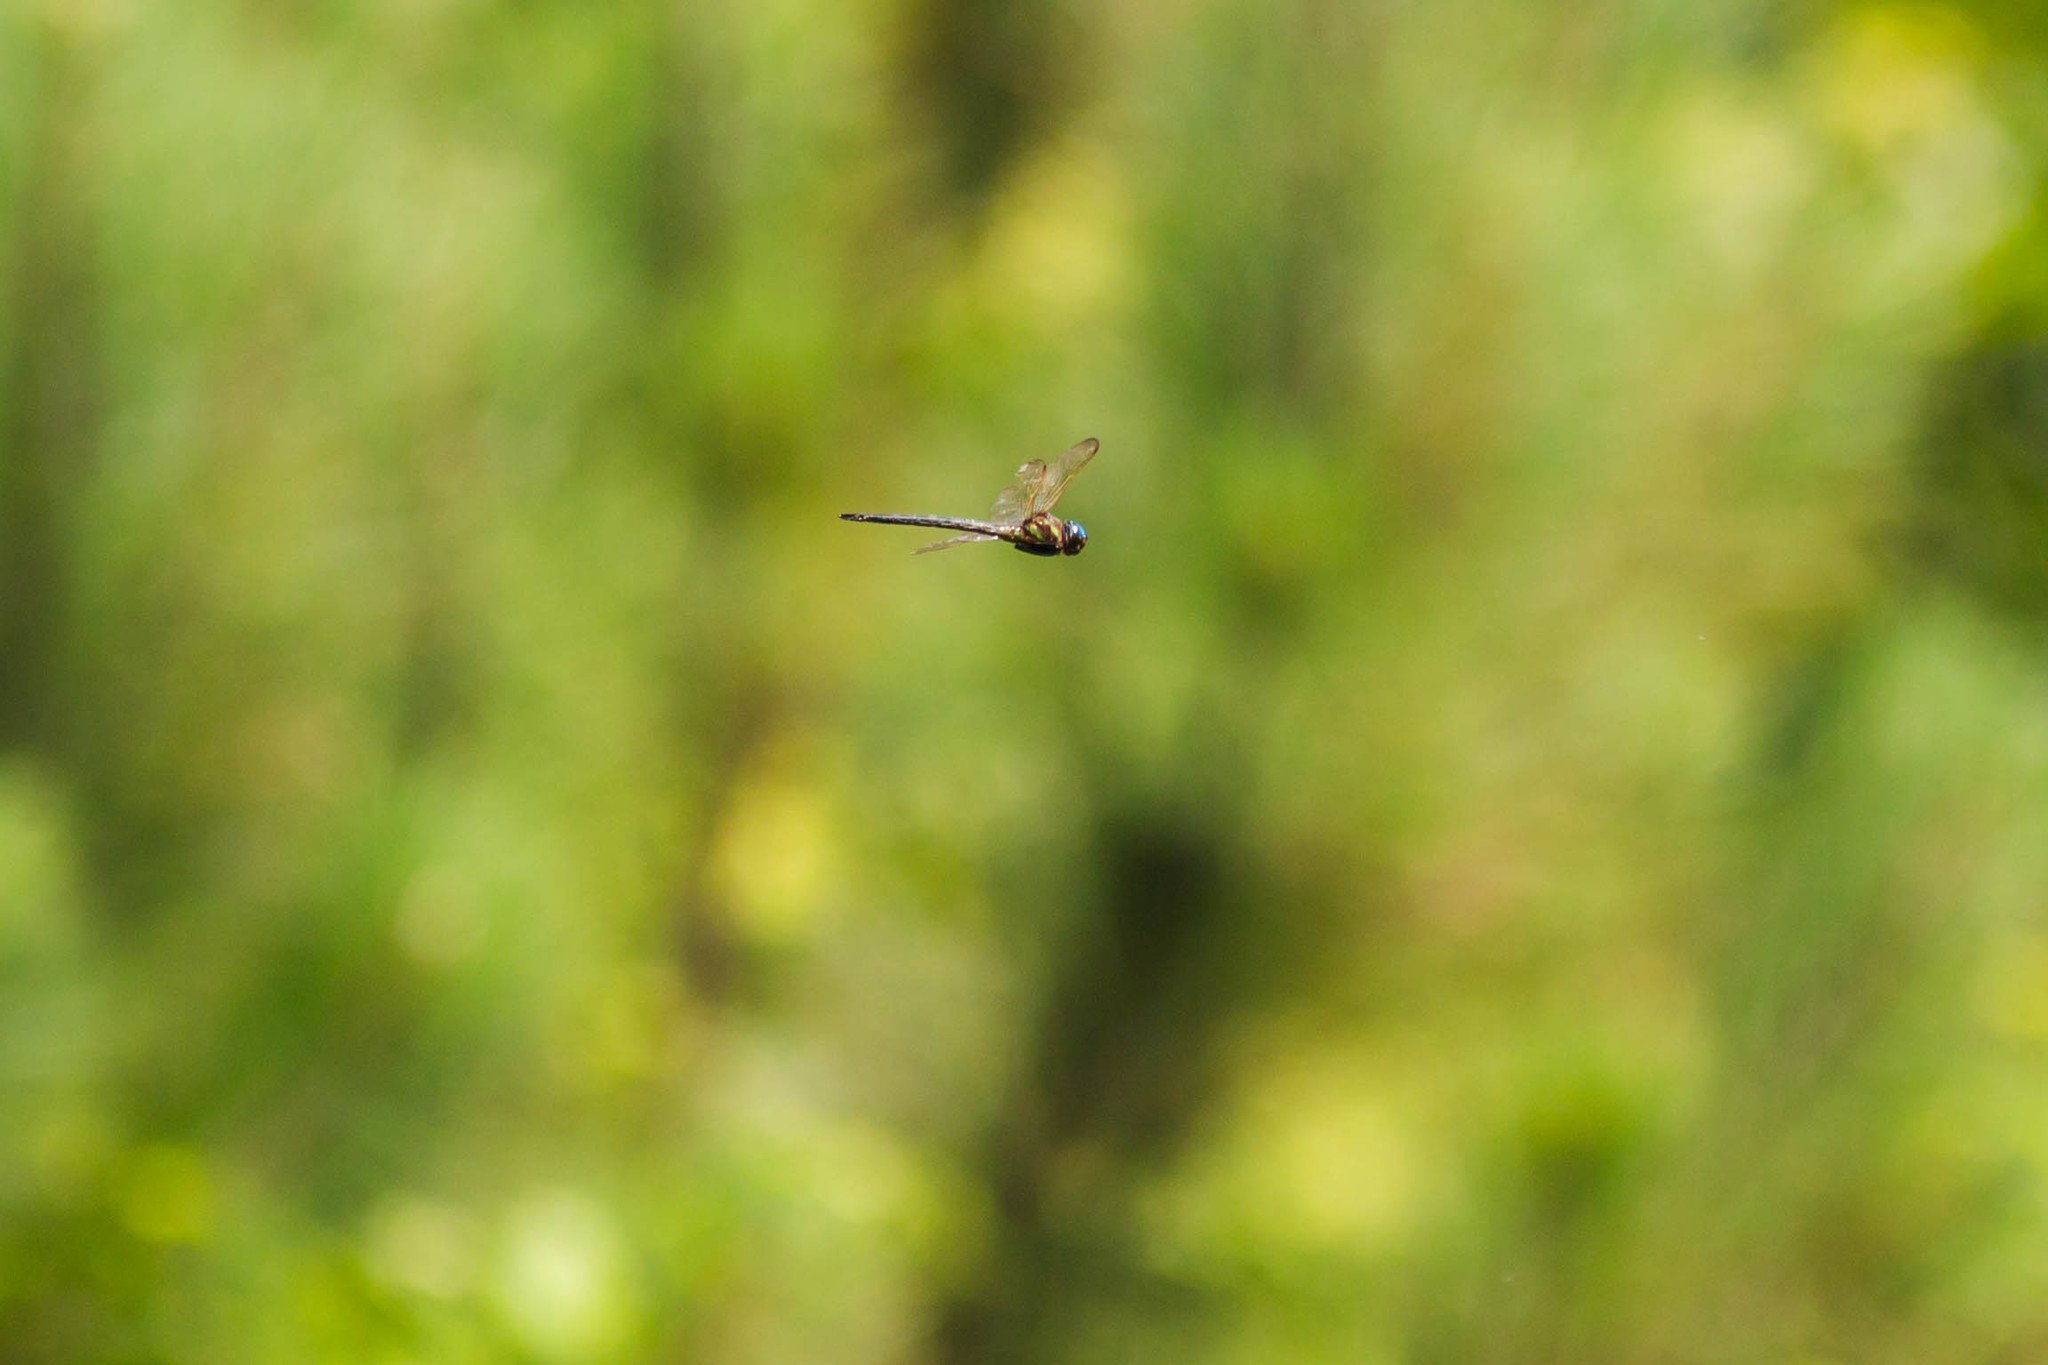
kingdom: Animalia
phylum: Arthropoda
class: Insecta
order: Odonata
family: Aeshnidae
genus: Epiaeschna
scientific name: Epiaeschna heros
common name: Swamp darner
